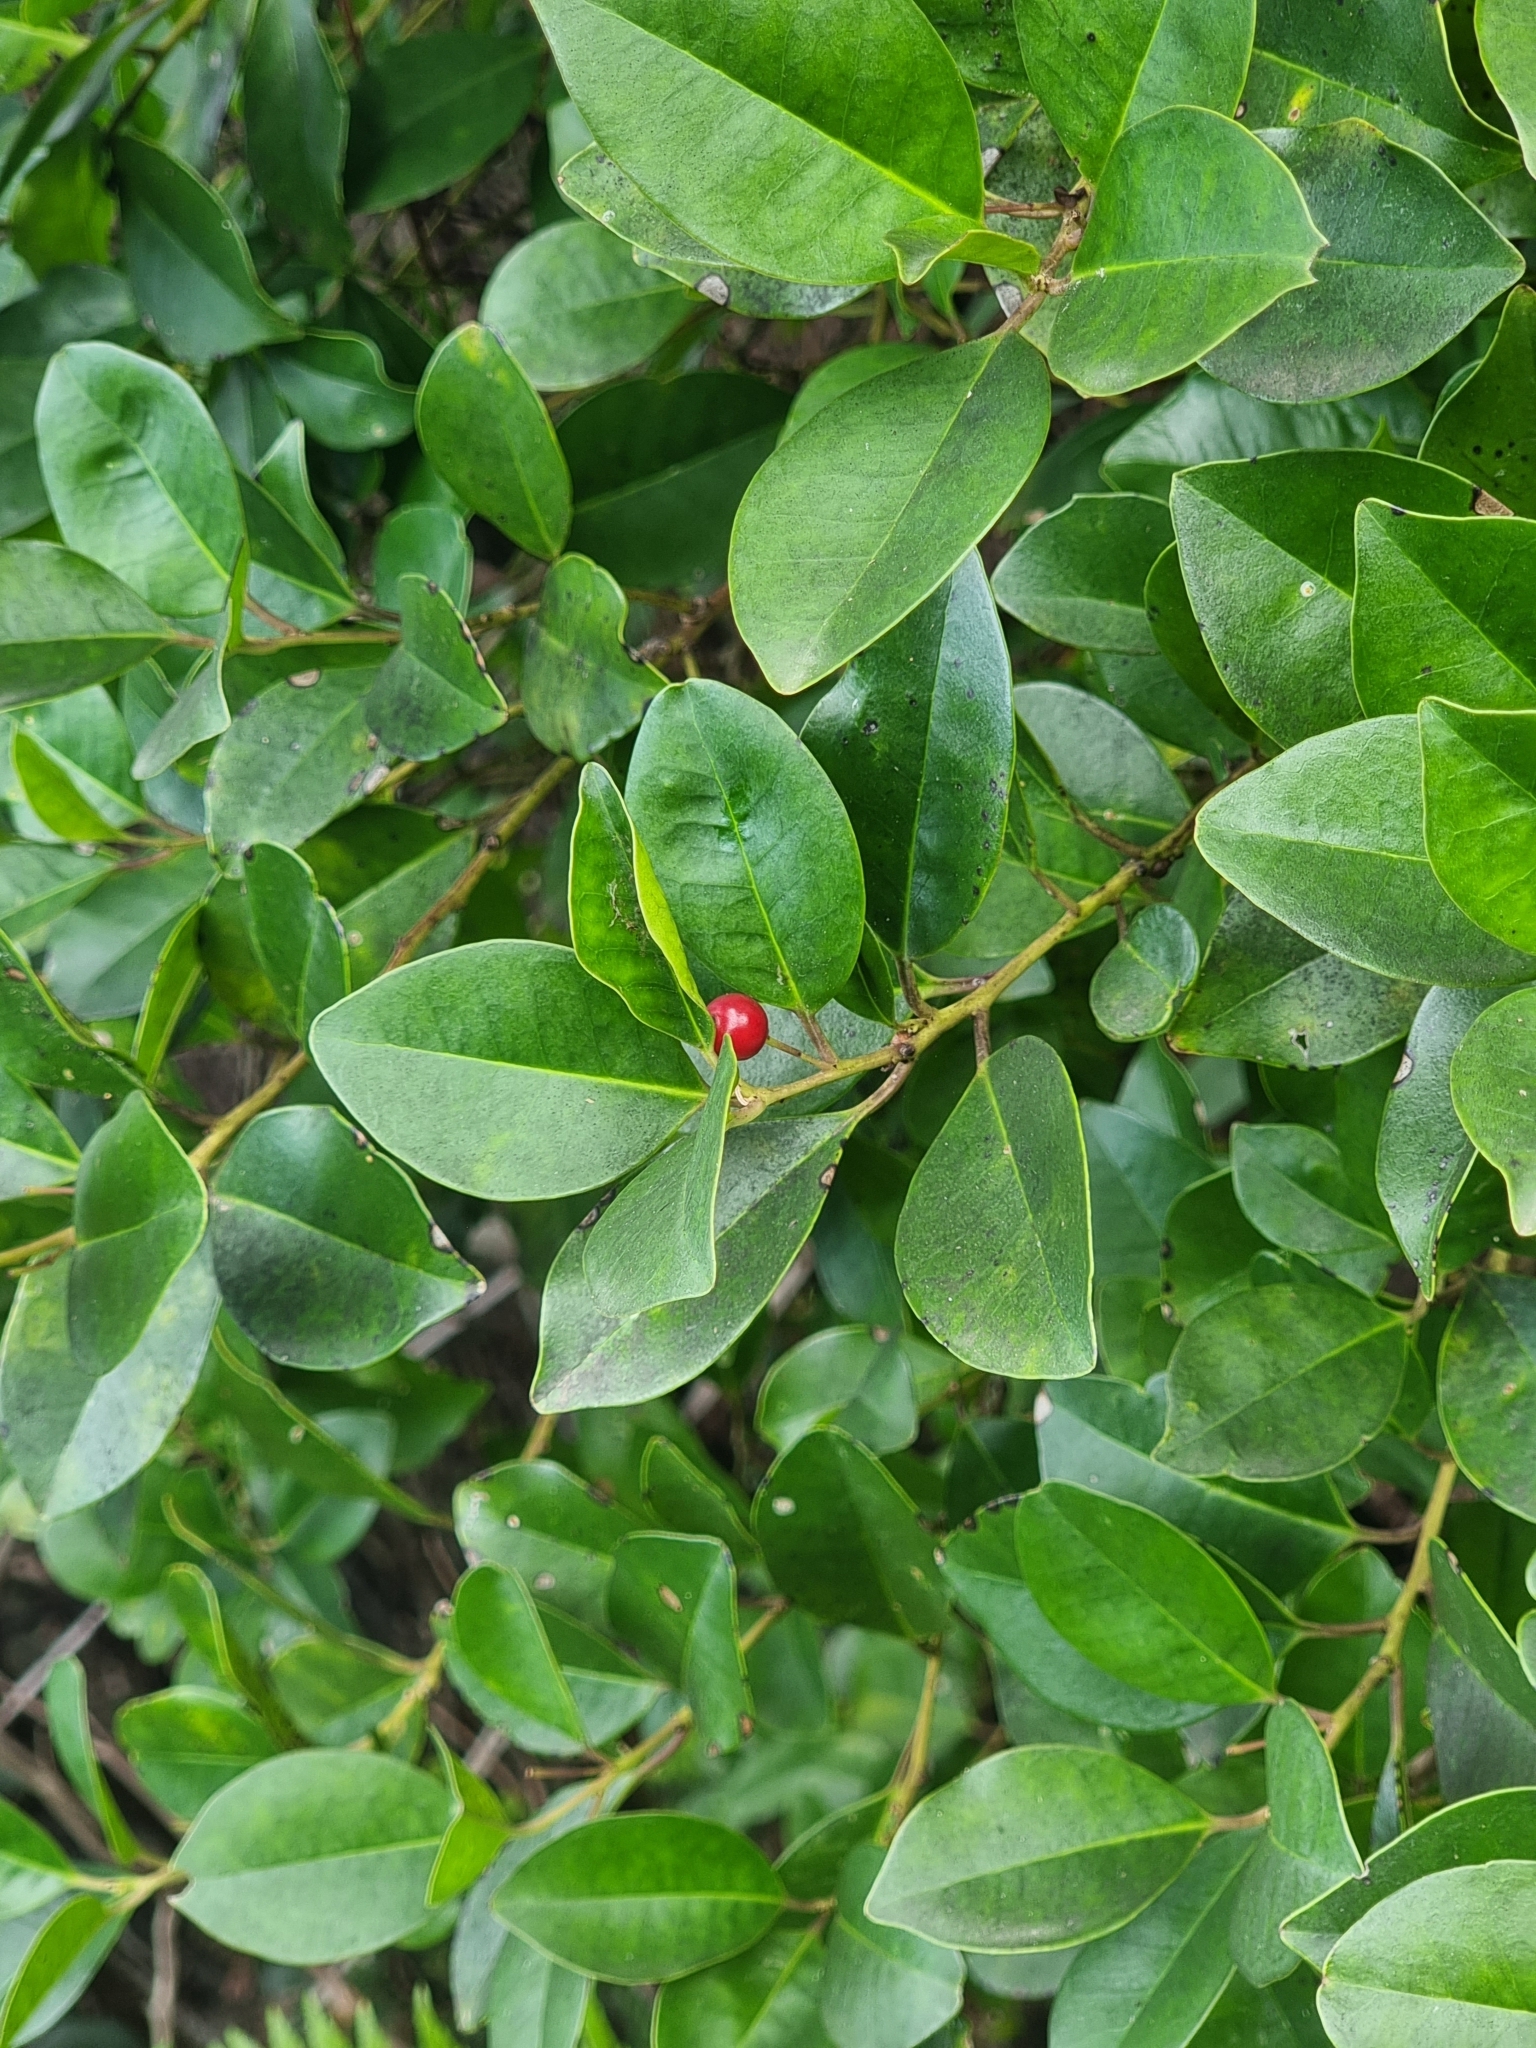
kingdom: Plantae
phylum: Tracheophyta
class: Magnoliopsida
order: Aquifoliales
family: Aquifoliaceae
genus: Ilex
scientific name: Ilex canariensis
